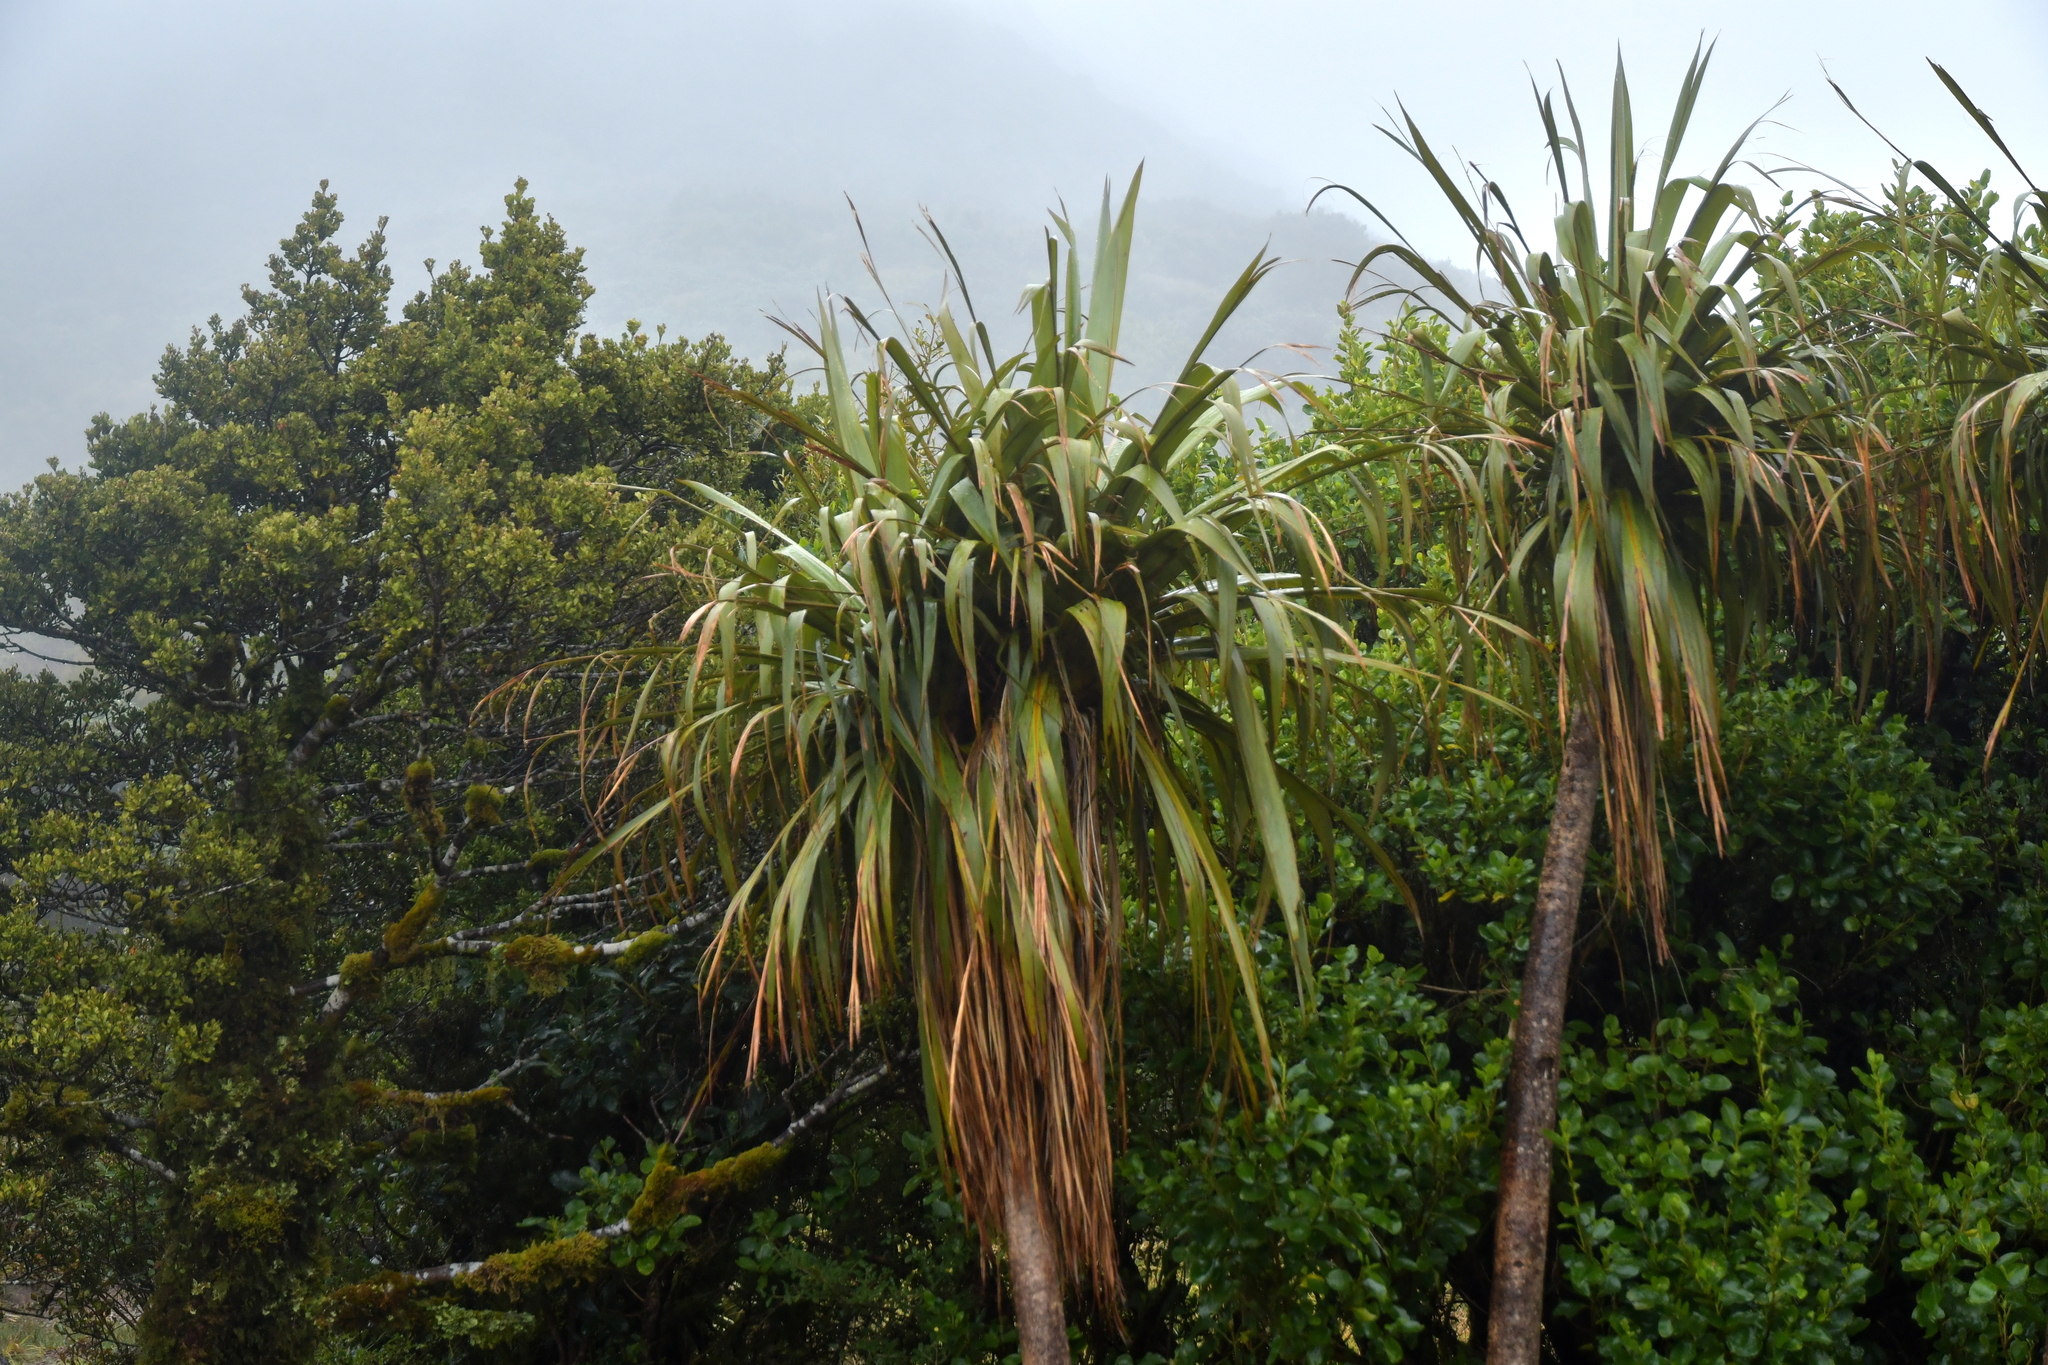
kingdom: Plantae
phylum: Tracheophyta
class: Liliopsida
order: Asparagales
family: Asparagaceae
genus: Cordyline
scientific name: Cordyline banksii
